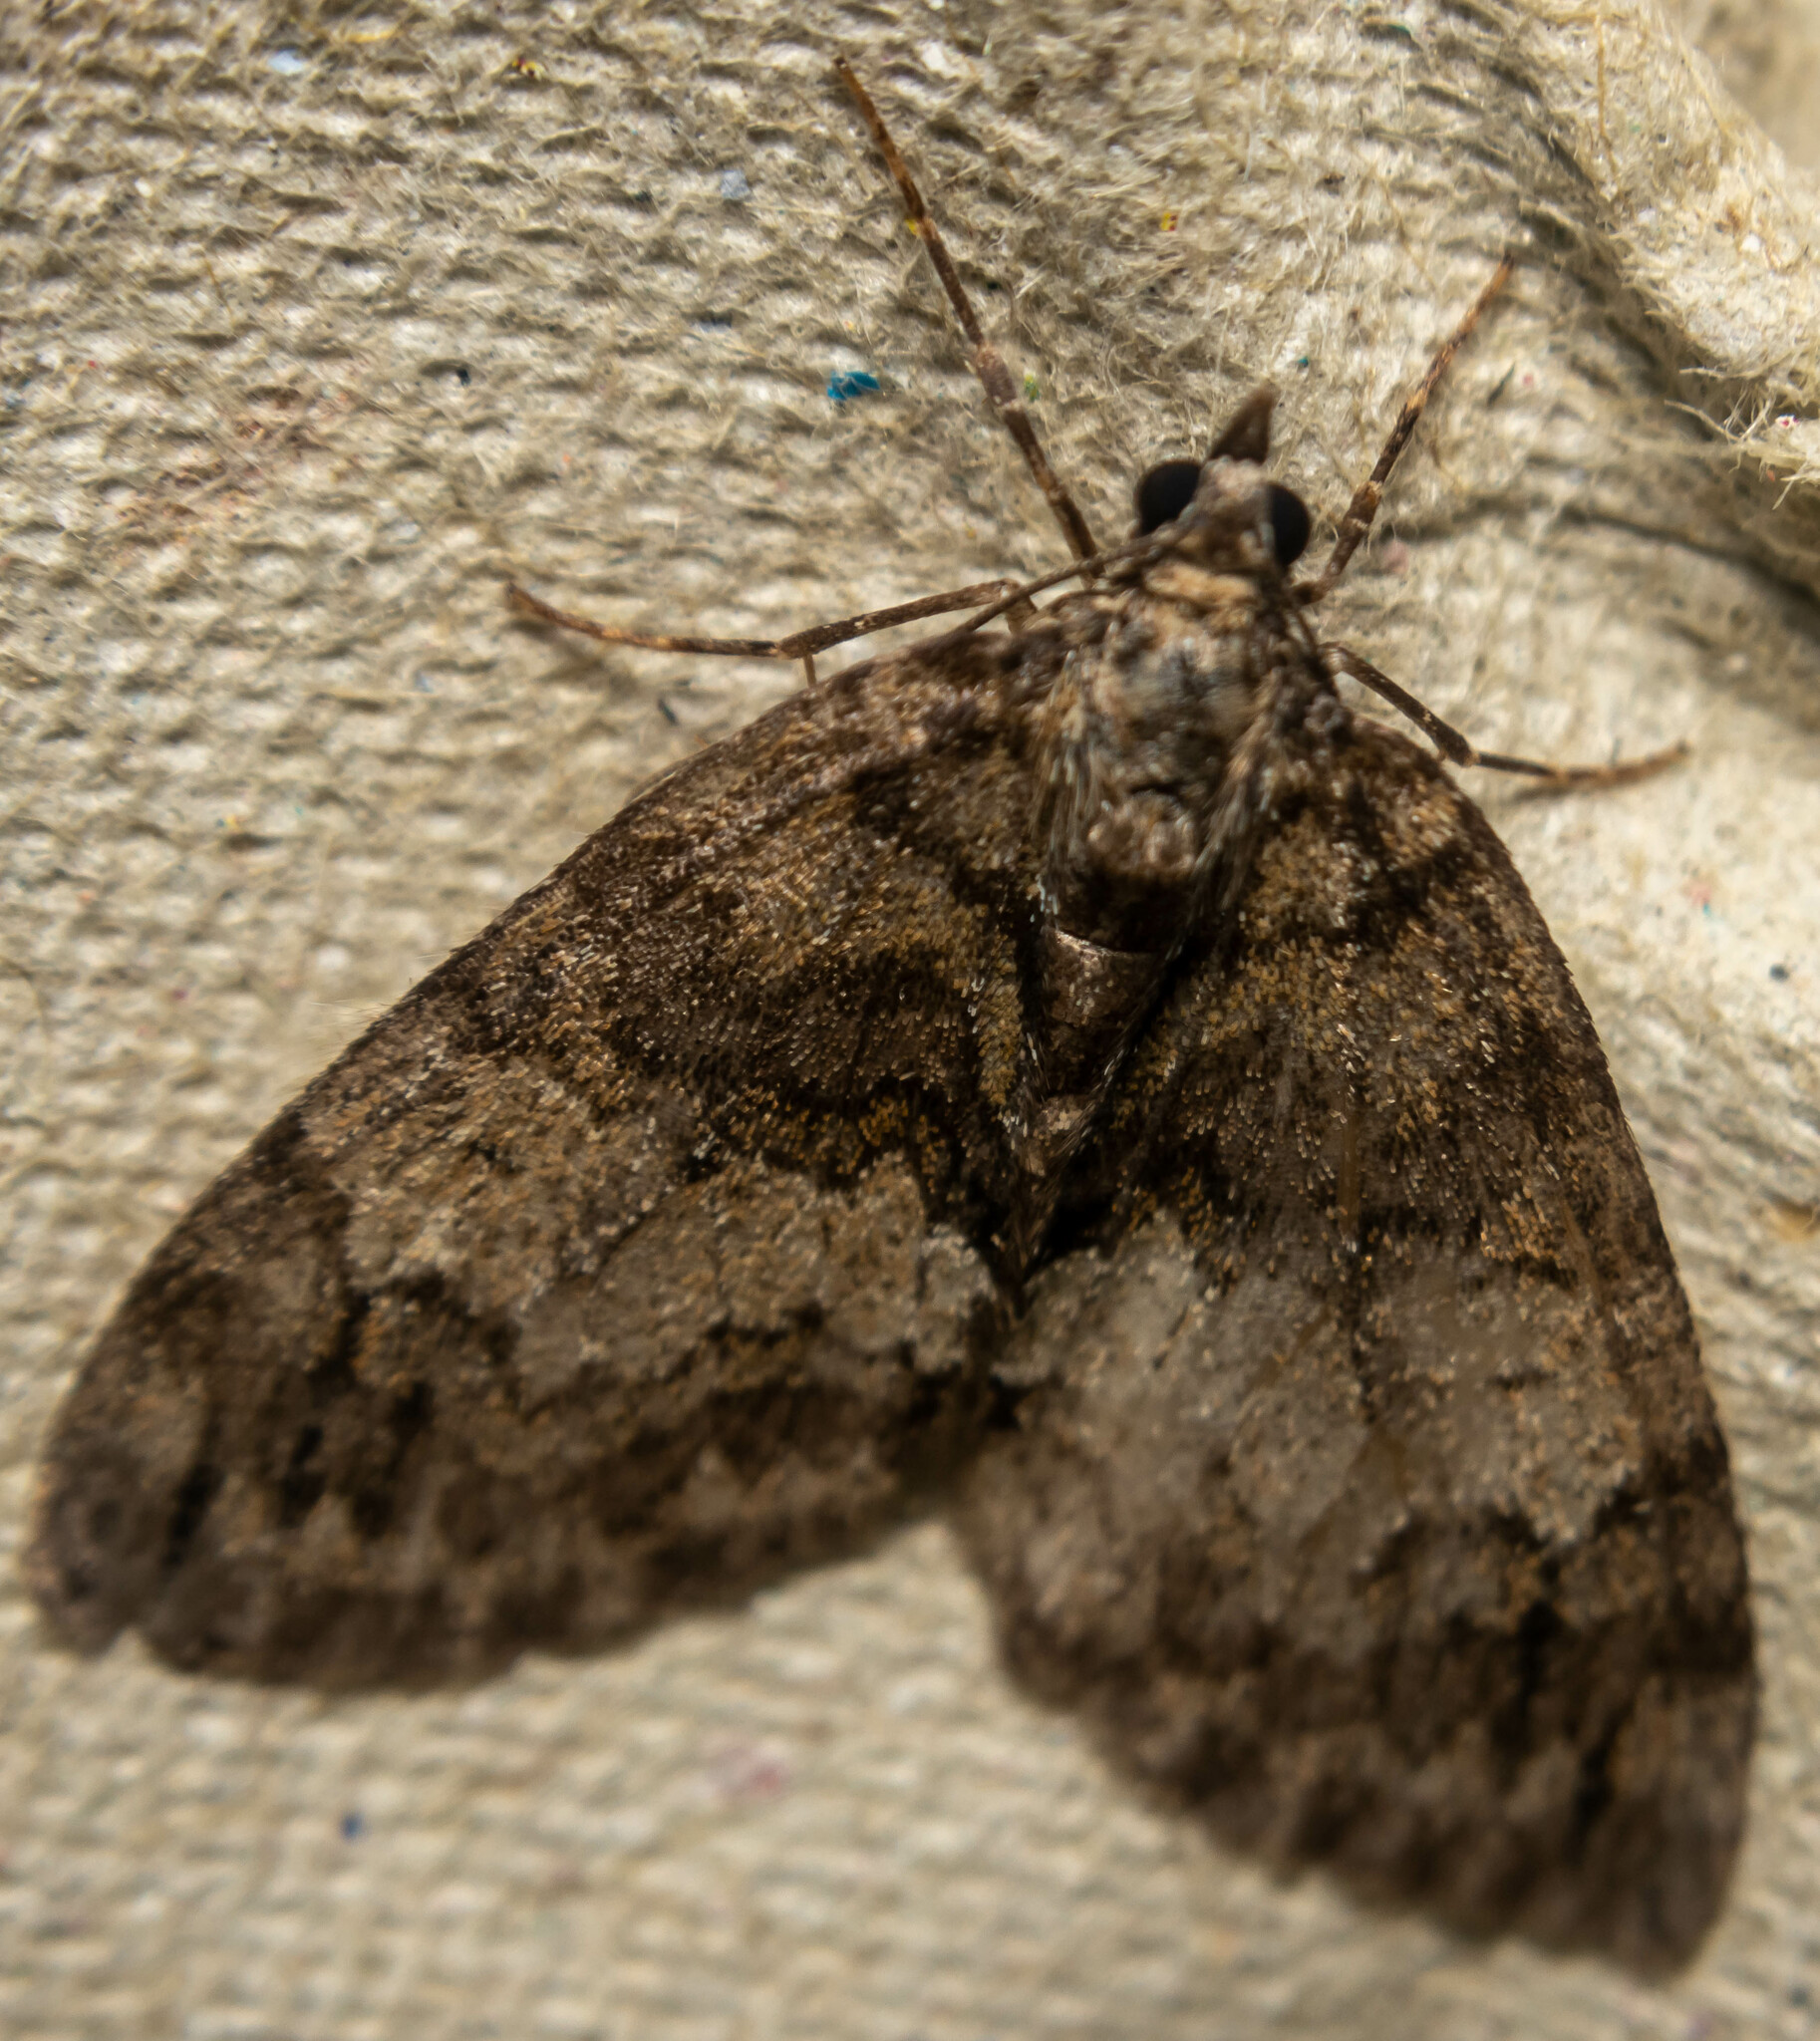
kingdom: Animalia
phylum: Arthropoda
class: Insecta
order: Lepidoptera
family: Geometridae
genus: Hydriomena
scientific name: Hydriomena impluviata
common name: May highflyer
